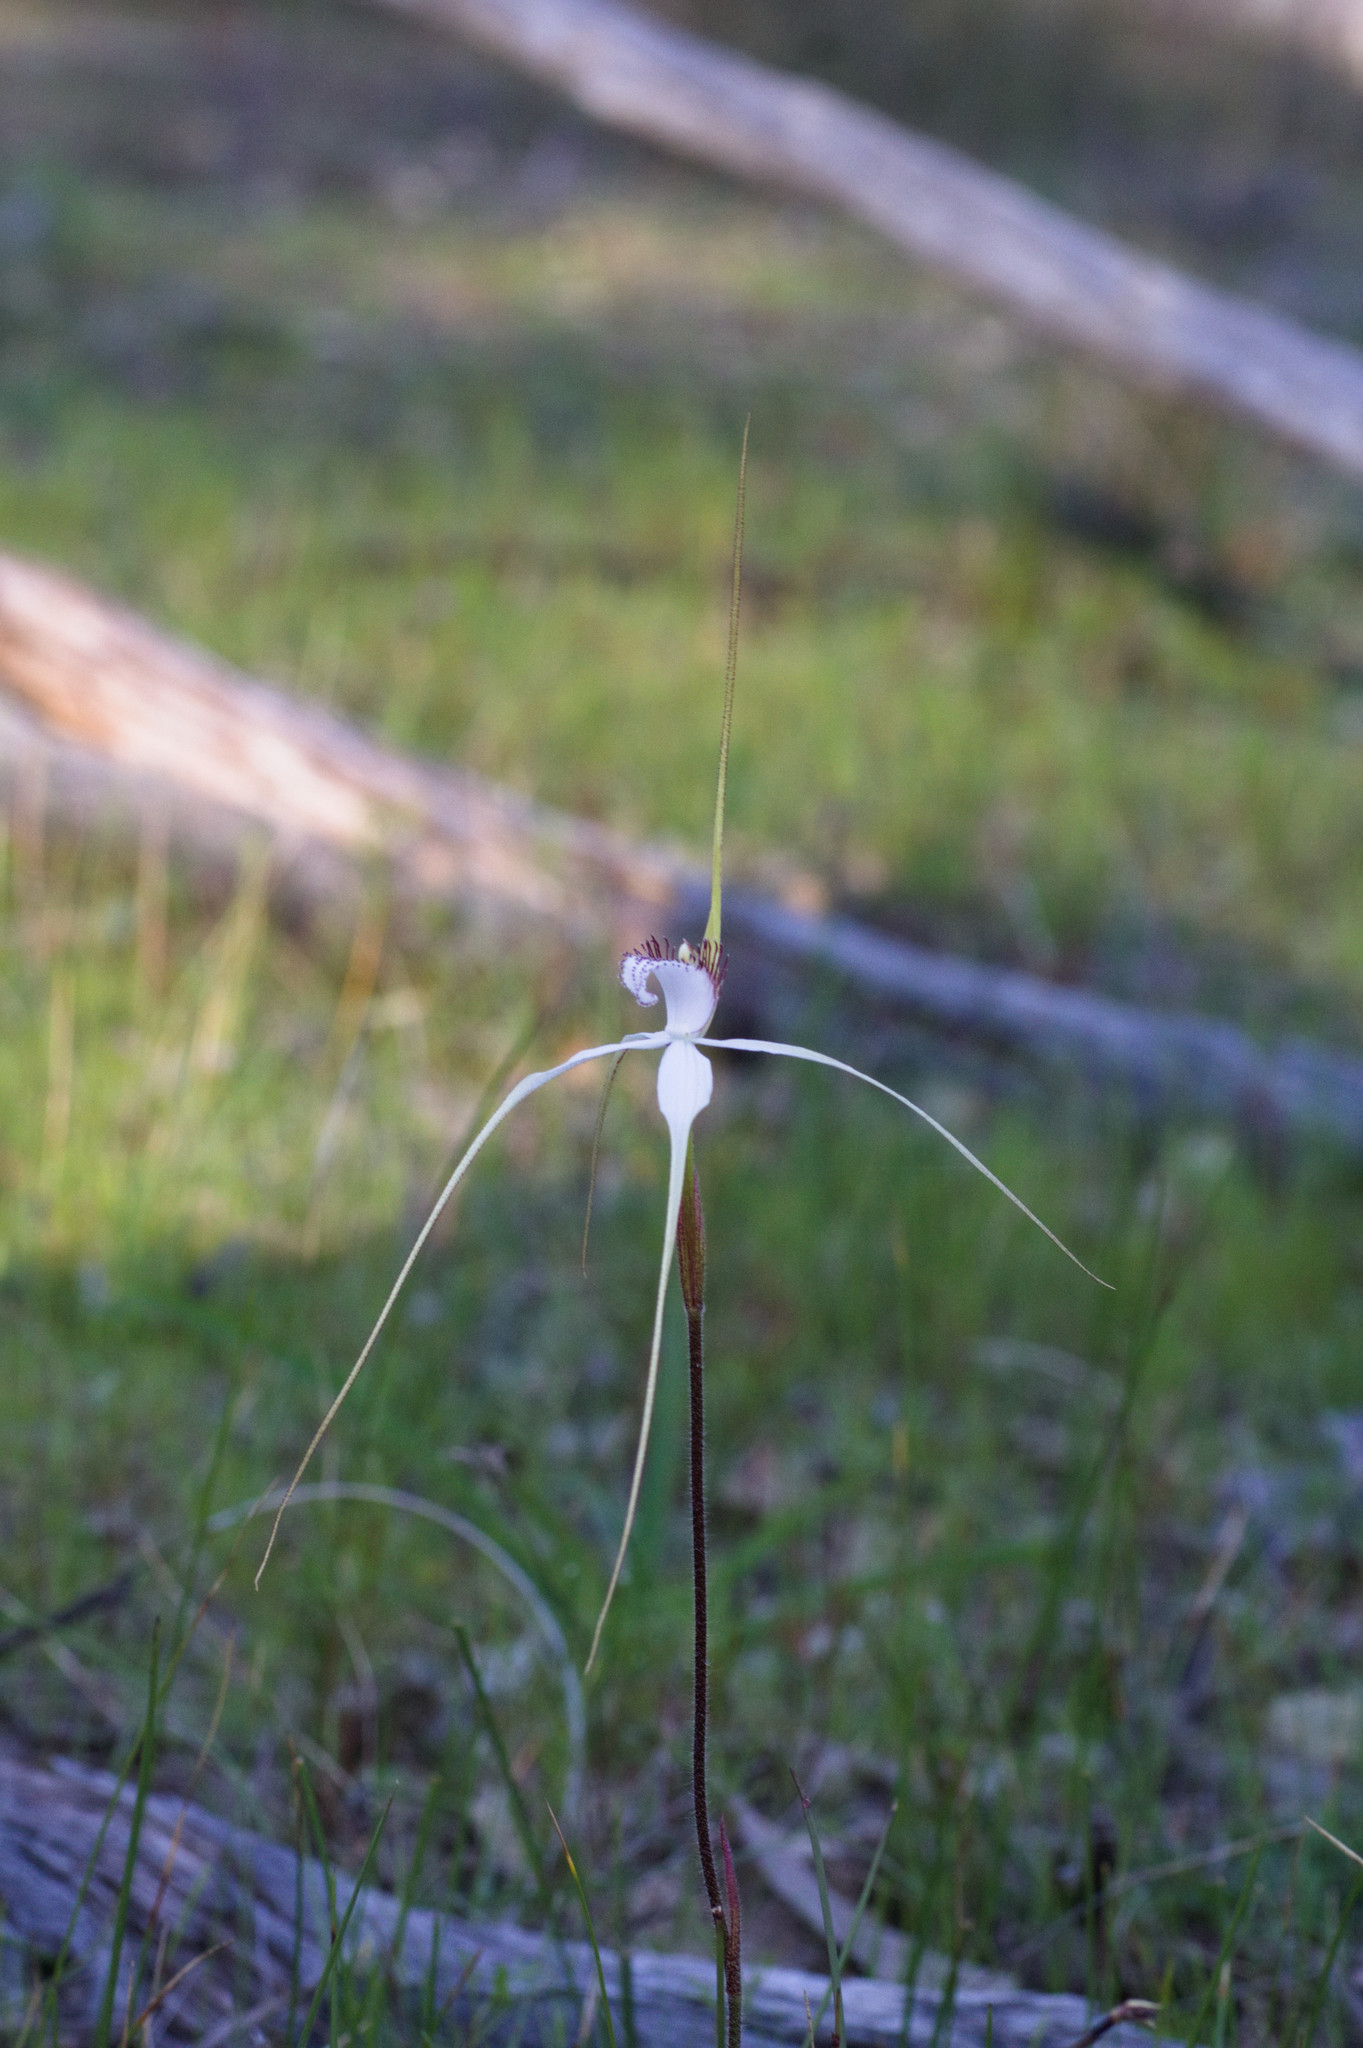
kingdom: Plantae
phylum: Tracheophyta
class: Liliopsida
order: Asparagales
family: Orchidaceae
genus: Caladenia
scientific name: Caladenia longicauda
